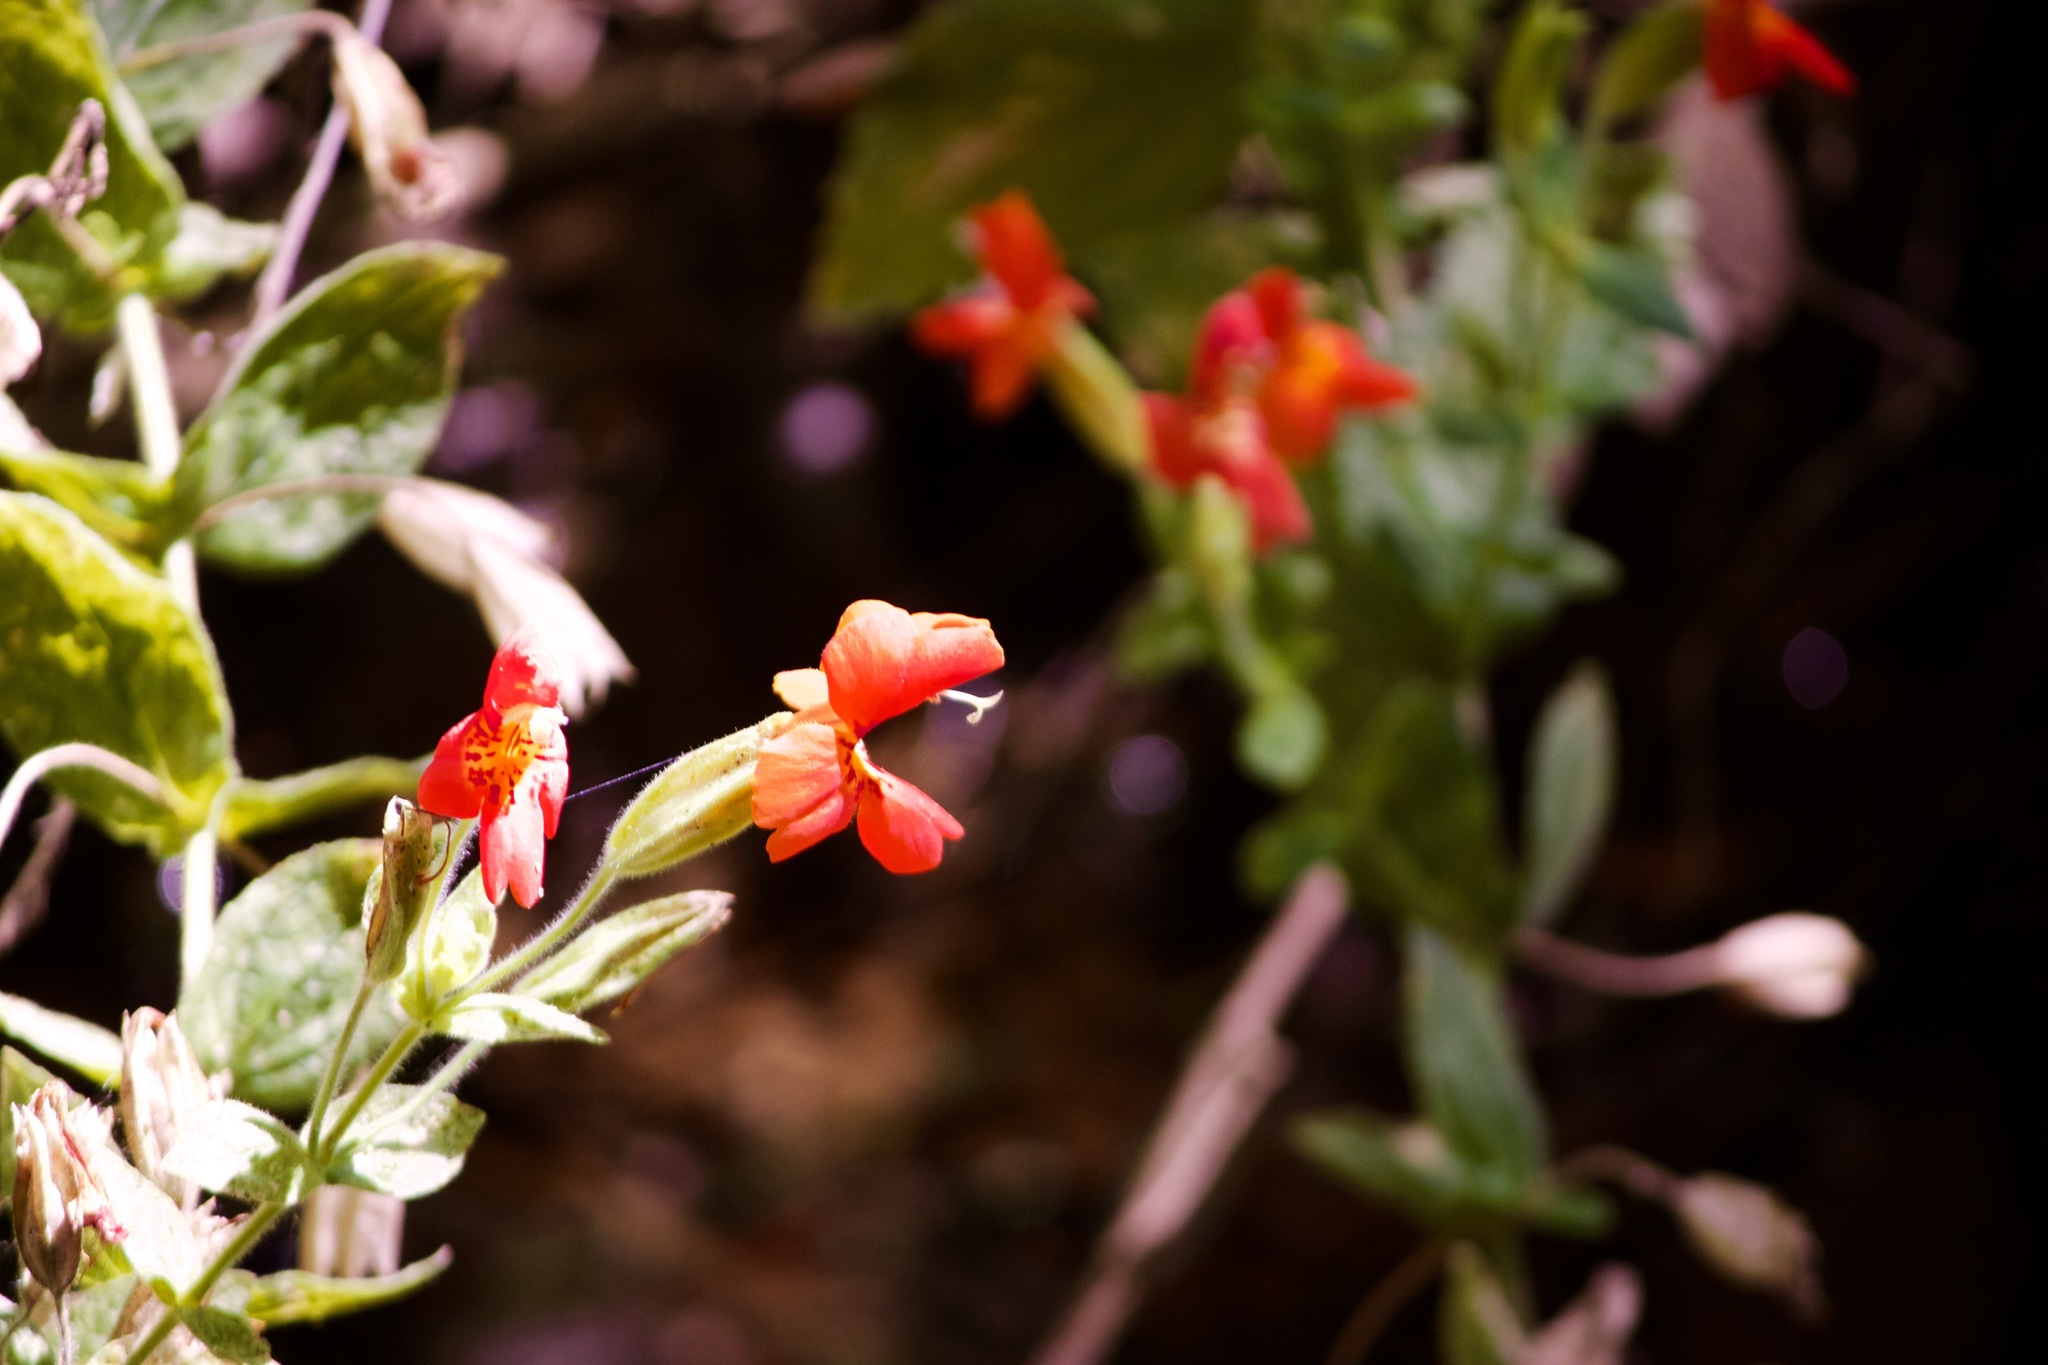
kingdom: Plantae
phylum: Tracheophyta
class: Magnoliopsida
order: Lamiales
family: Phrymaceae
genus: Erythranthe
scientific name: Erythranthe cardinalis
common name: Scarlet monkey-flower
